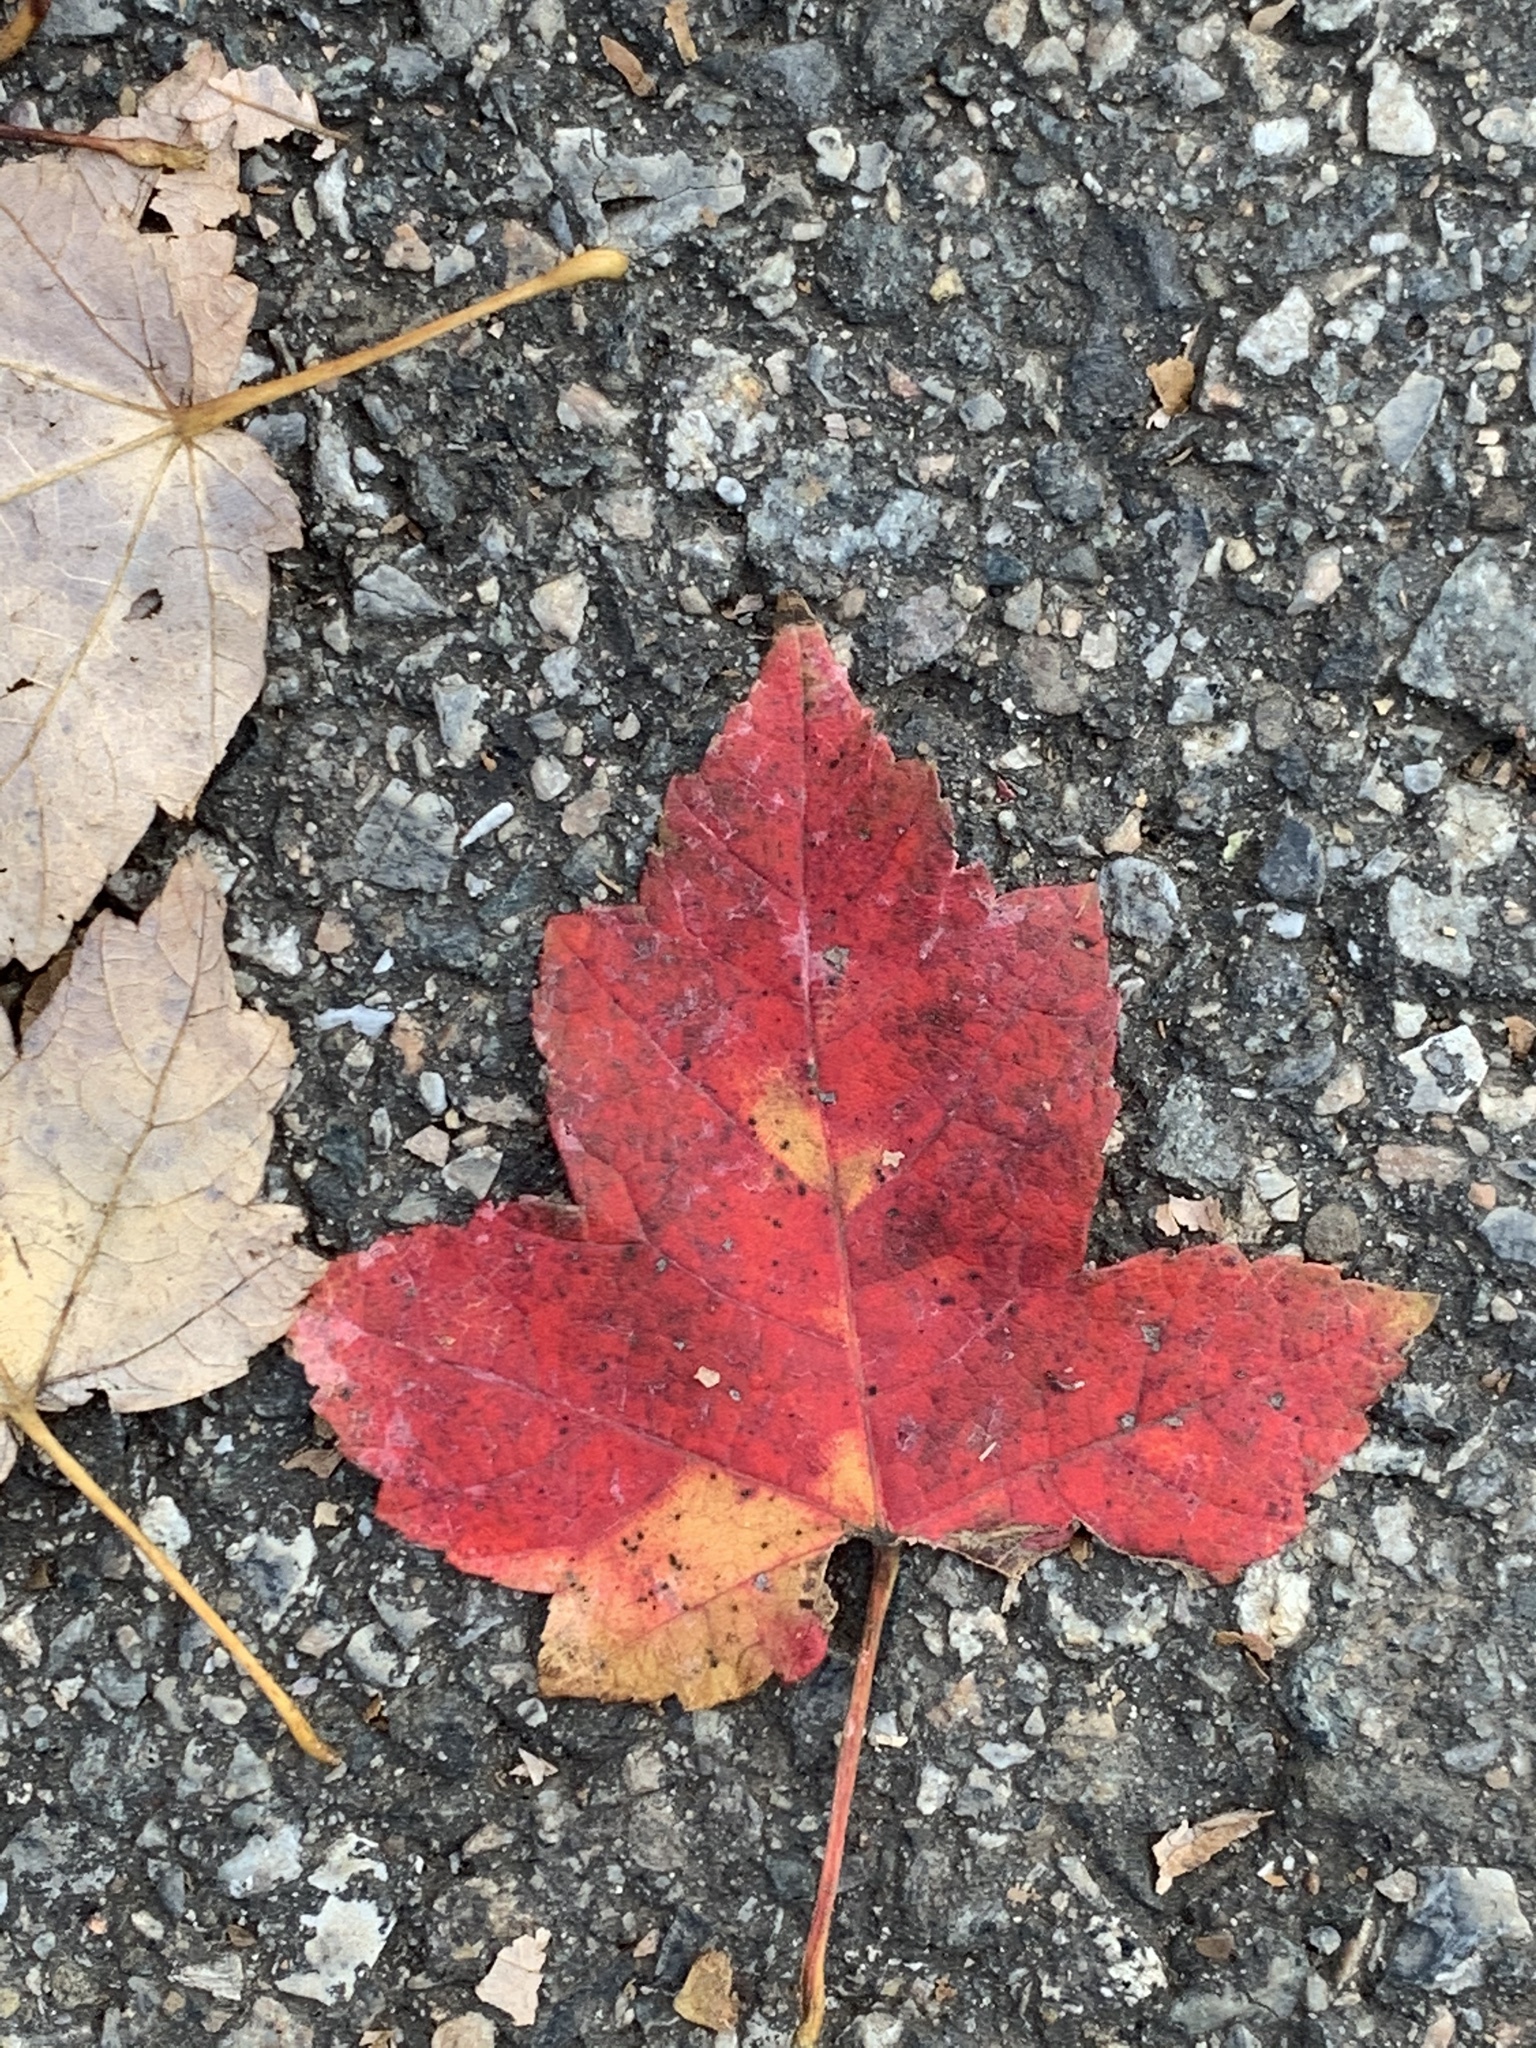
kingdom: Plantae
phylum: Tracheophyta
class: Magnoliopsida
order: Sapindales
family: Sapindaceae
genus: Acer
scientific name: Acer rubrum
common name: Red maple
